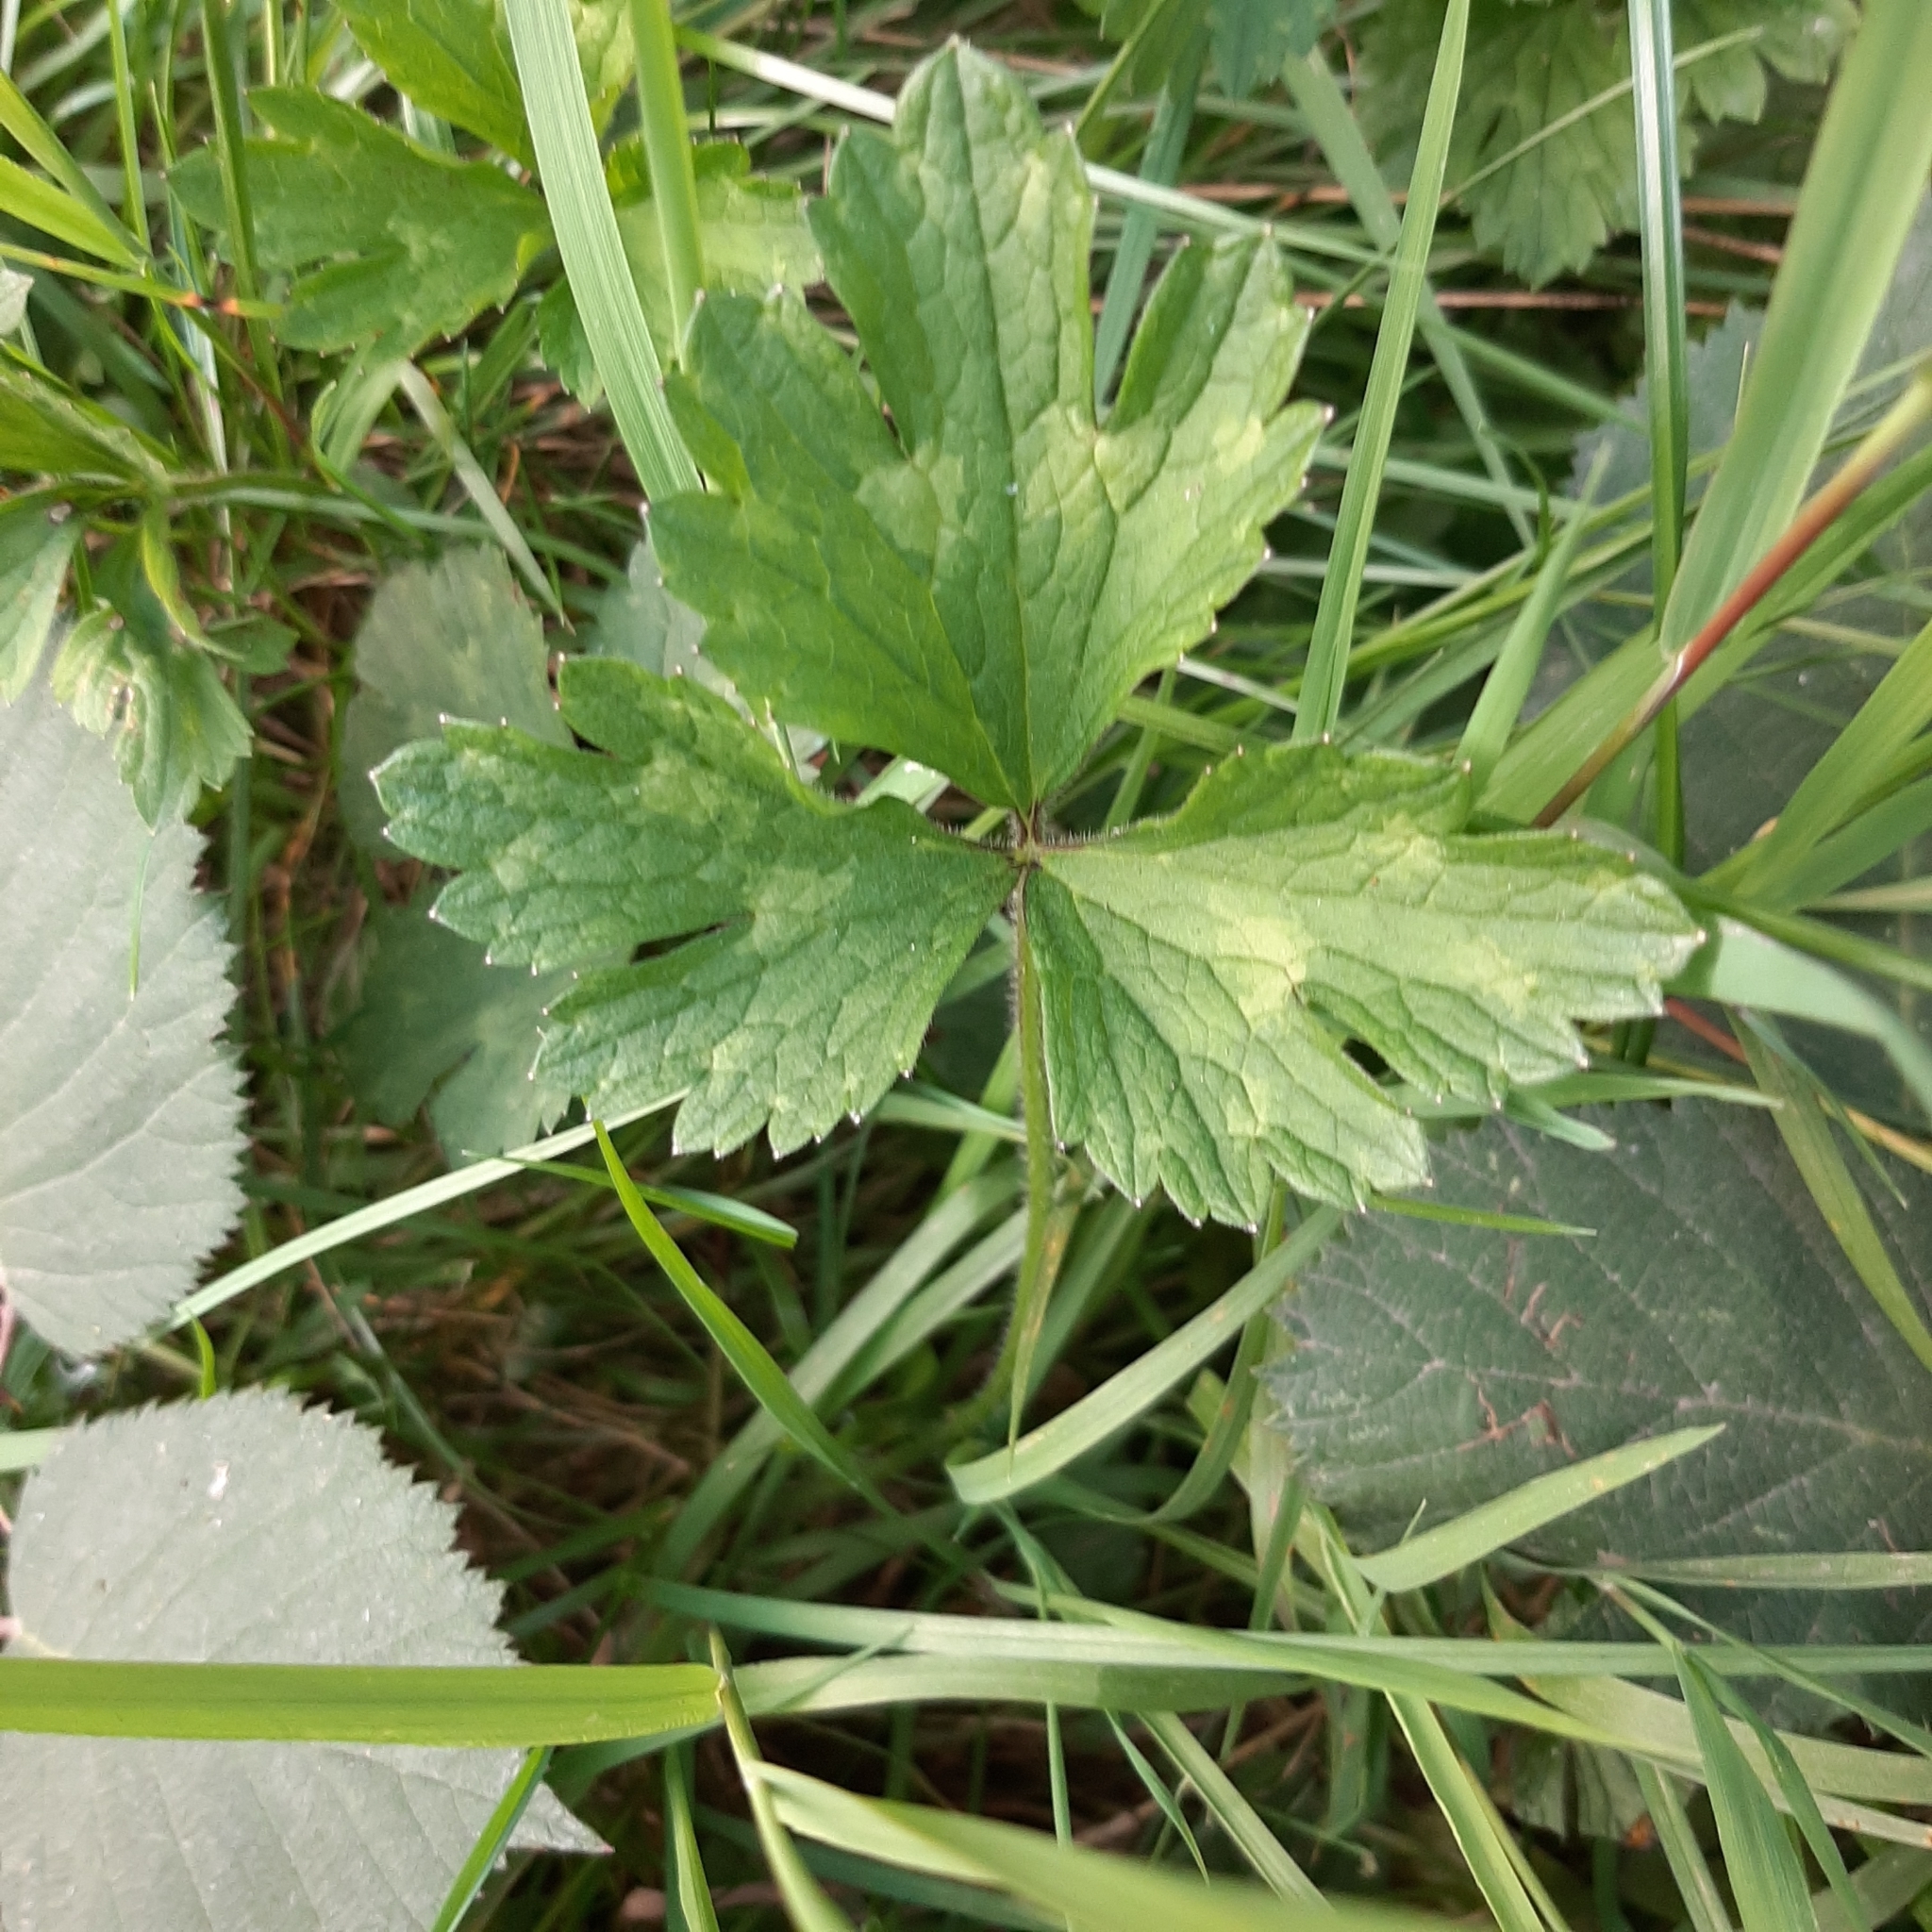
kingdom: Plantae
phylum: Tracheophyta
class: Magnoliopsida
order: Ranunculales
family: Ranunculaceae
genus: Ranunculus
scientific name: Ranunculus repens
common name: Creeping buttercup
